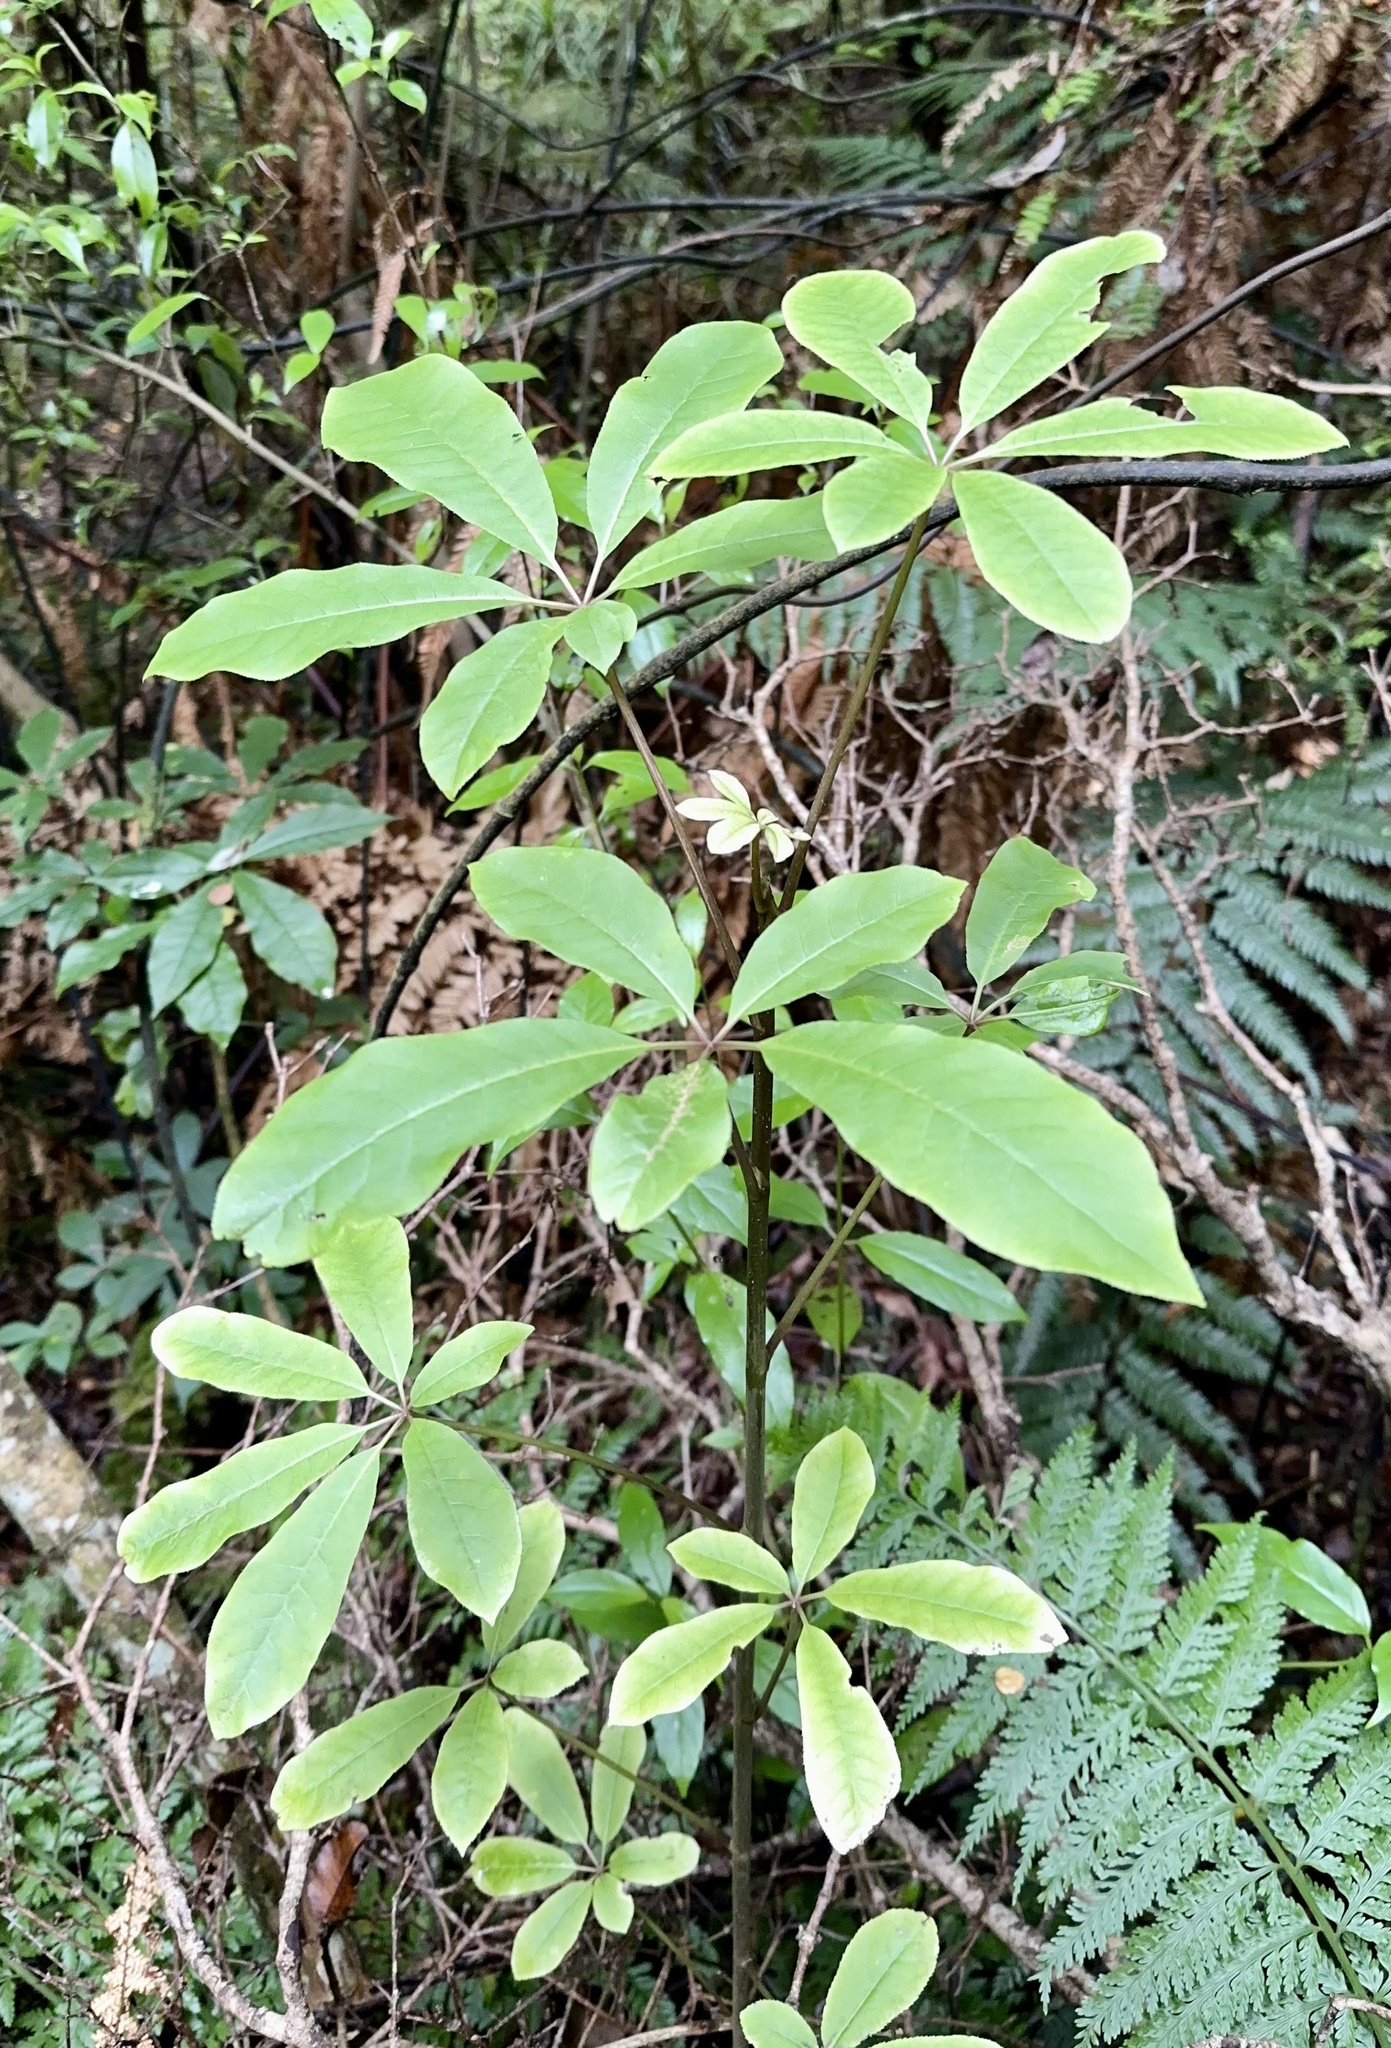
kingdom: Plantae
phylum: Tracheophyta
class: Magnoliopsida
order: Apiales
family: Araliaceae
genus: Schefflera
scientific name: Schefflera digitata
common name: Pate
